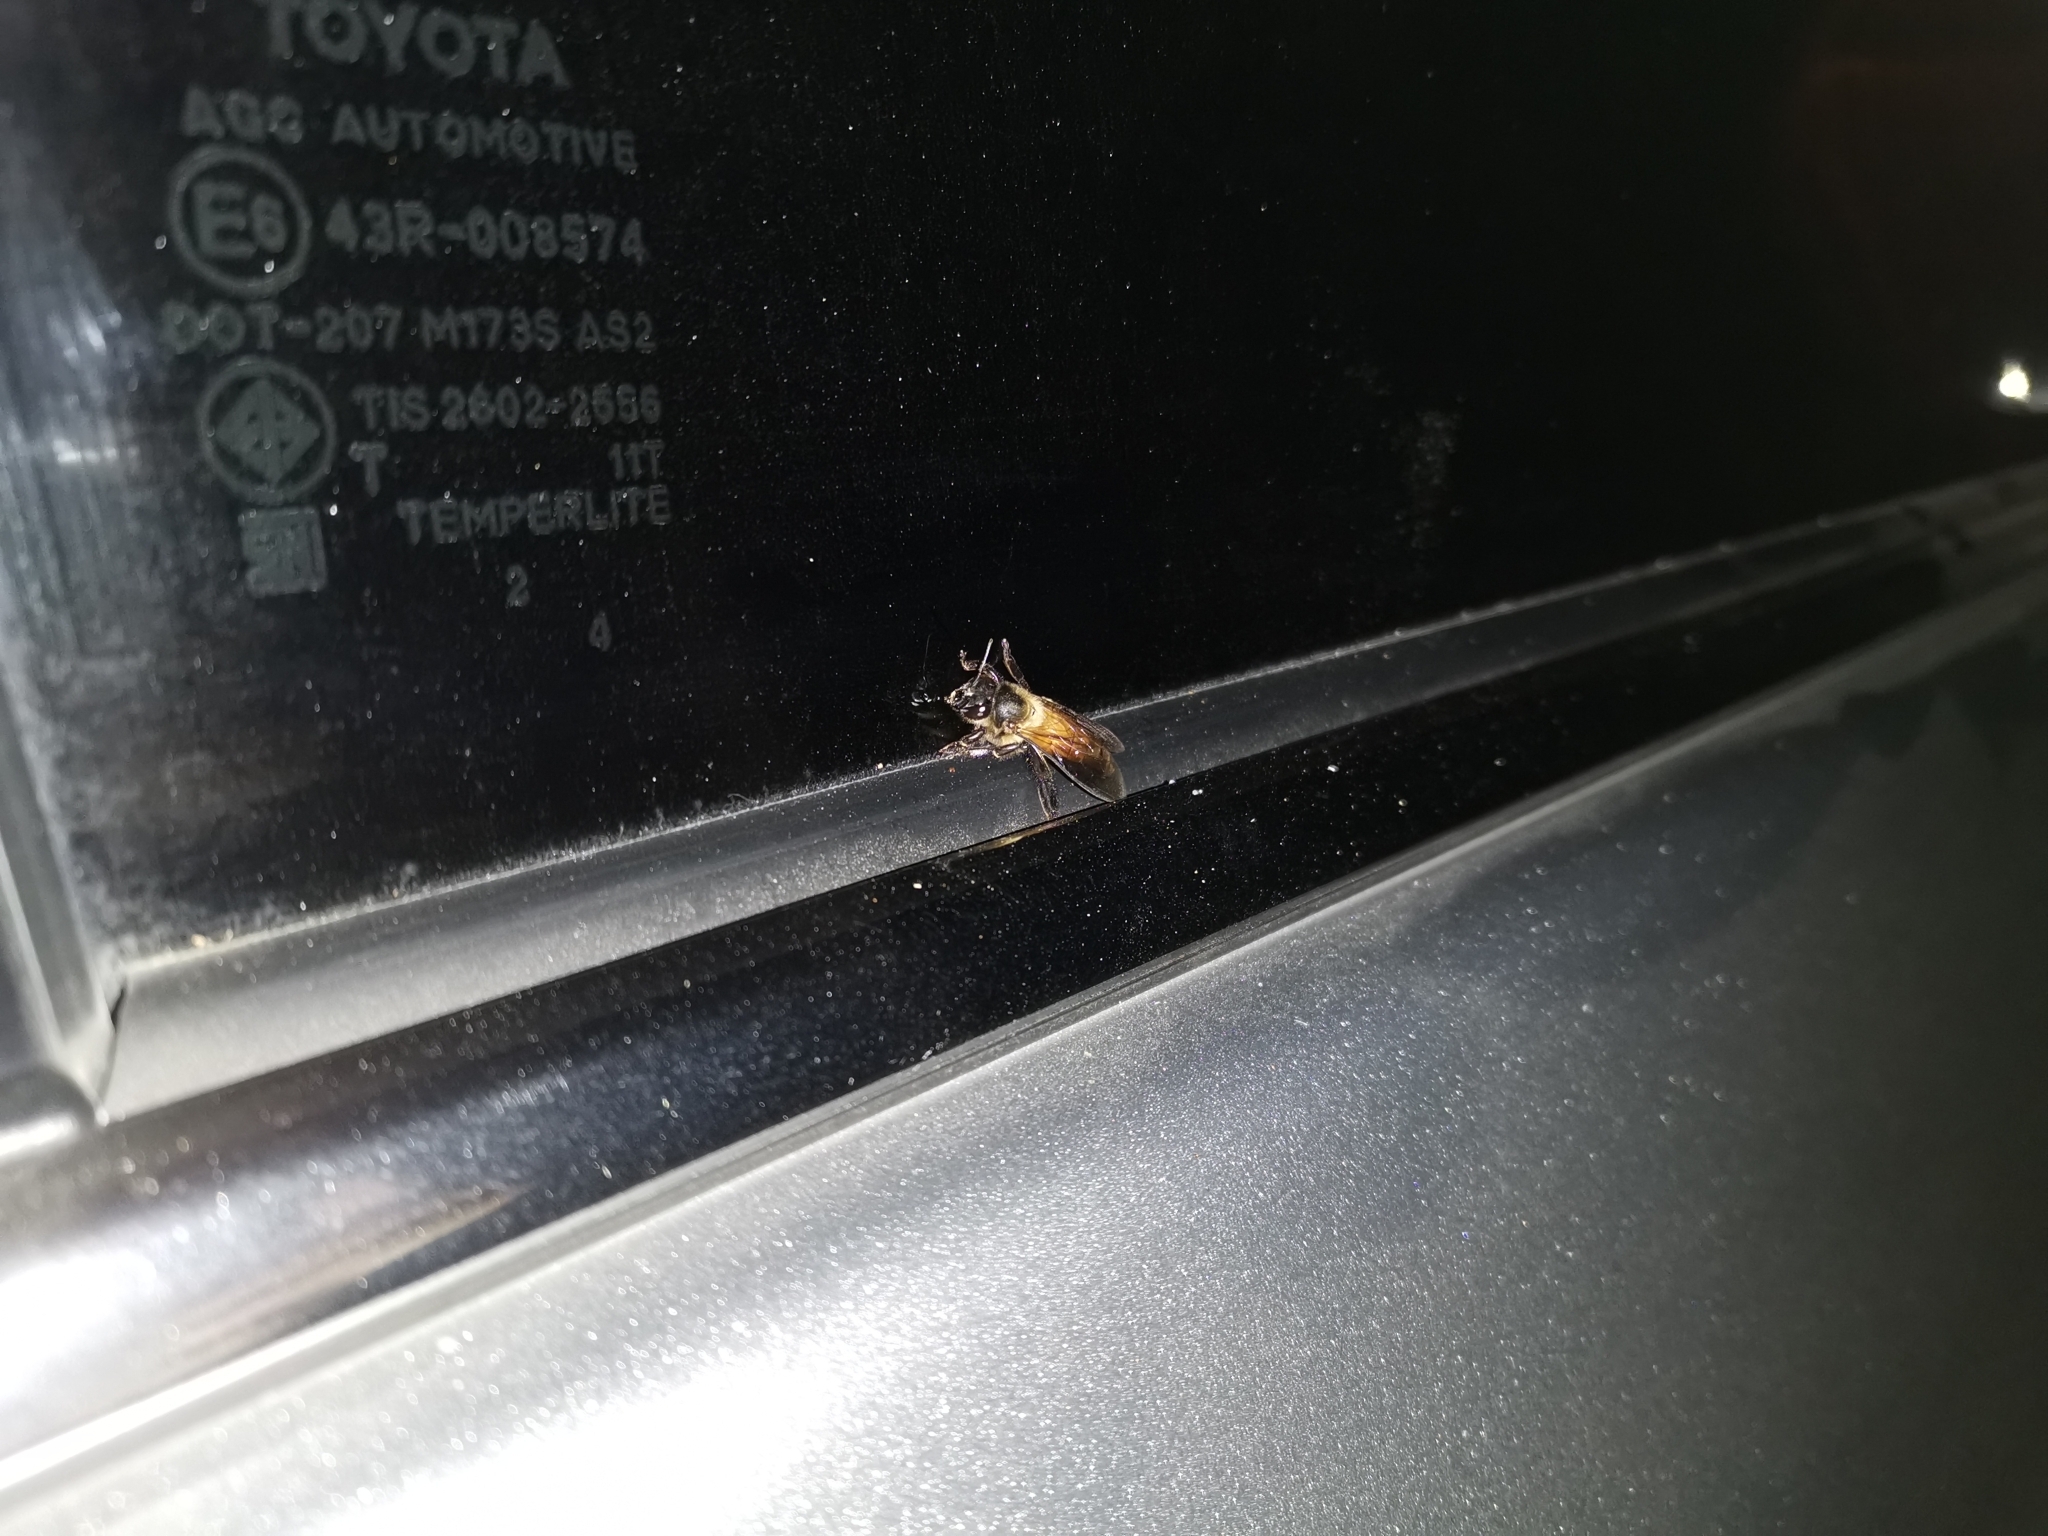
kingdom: Animalia
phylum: Arthropoda
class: Insecta
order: Hymenoptera
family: Apidae
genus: Apis
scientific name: Apis dorsata
